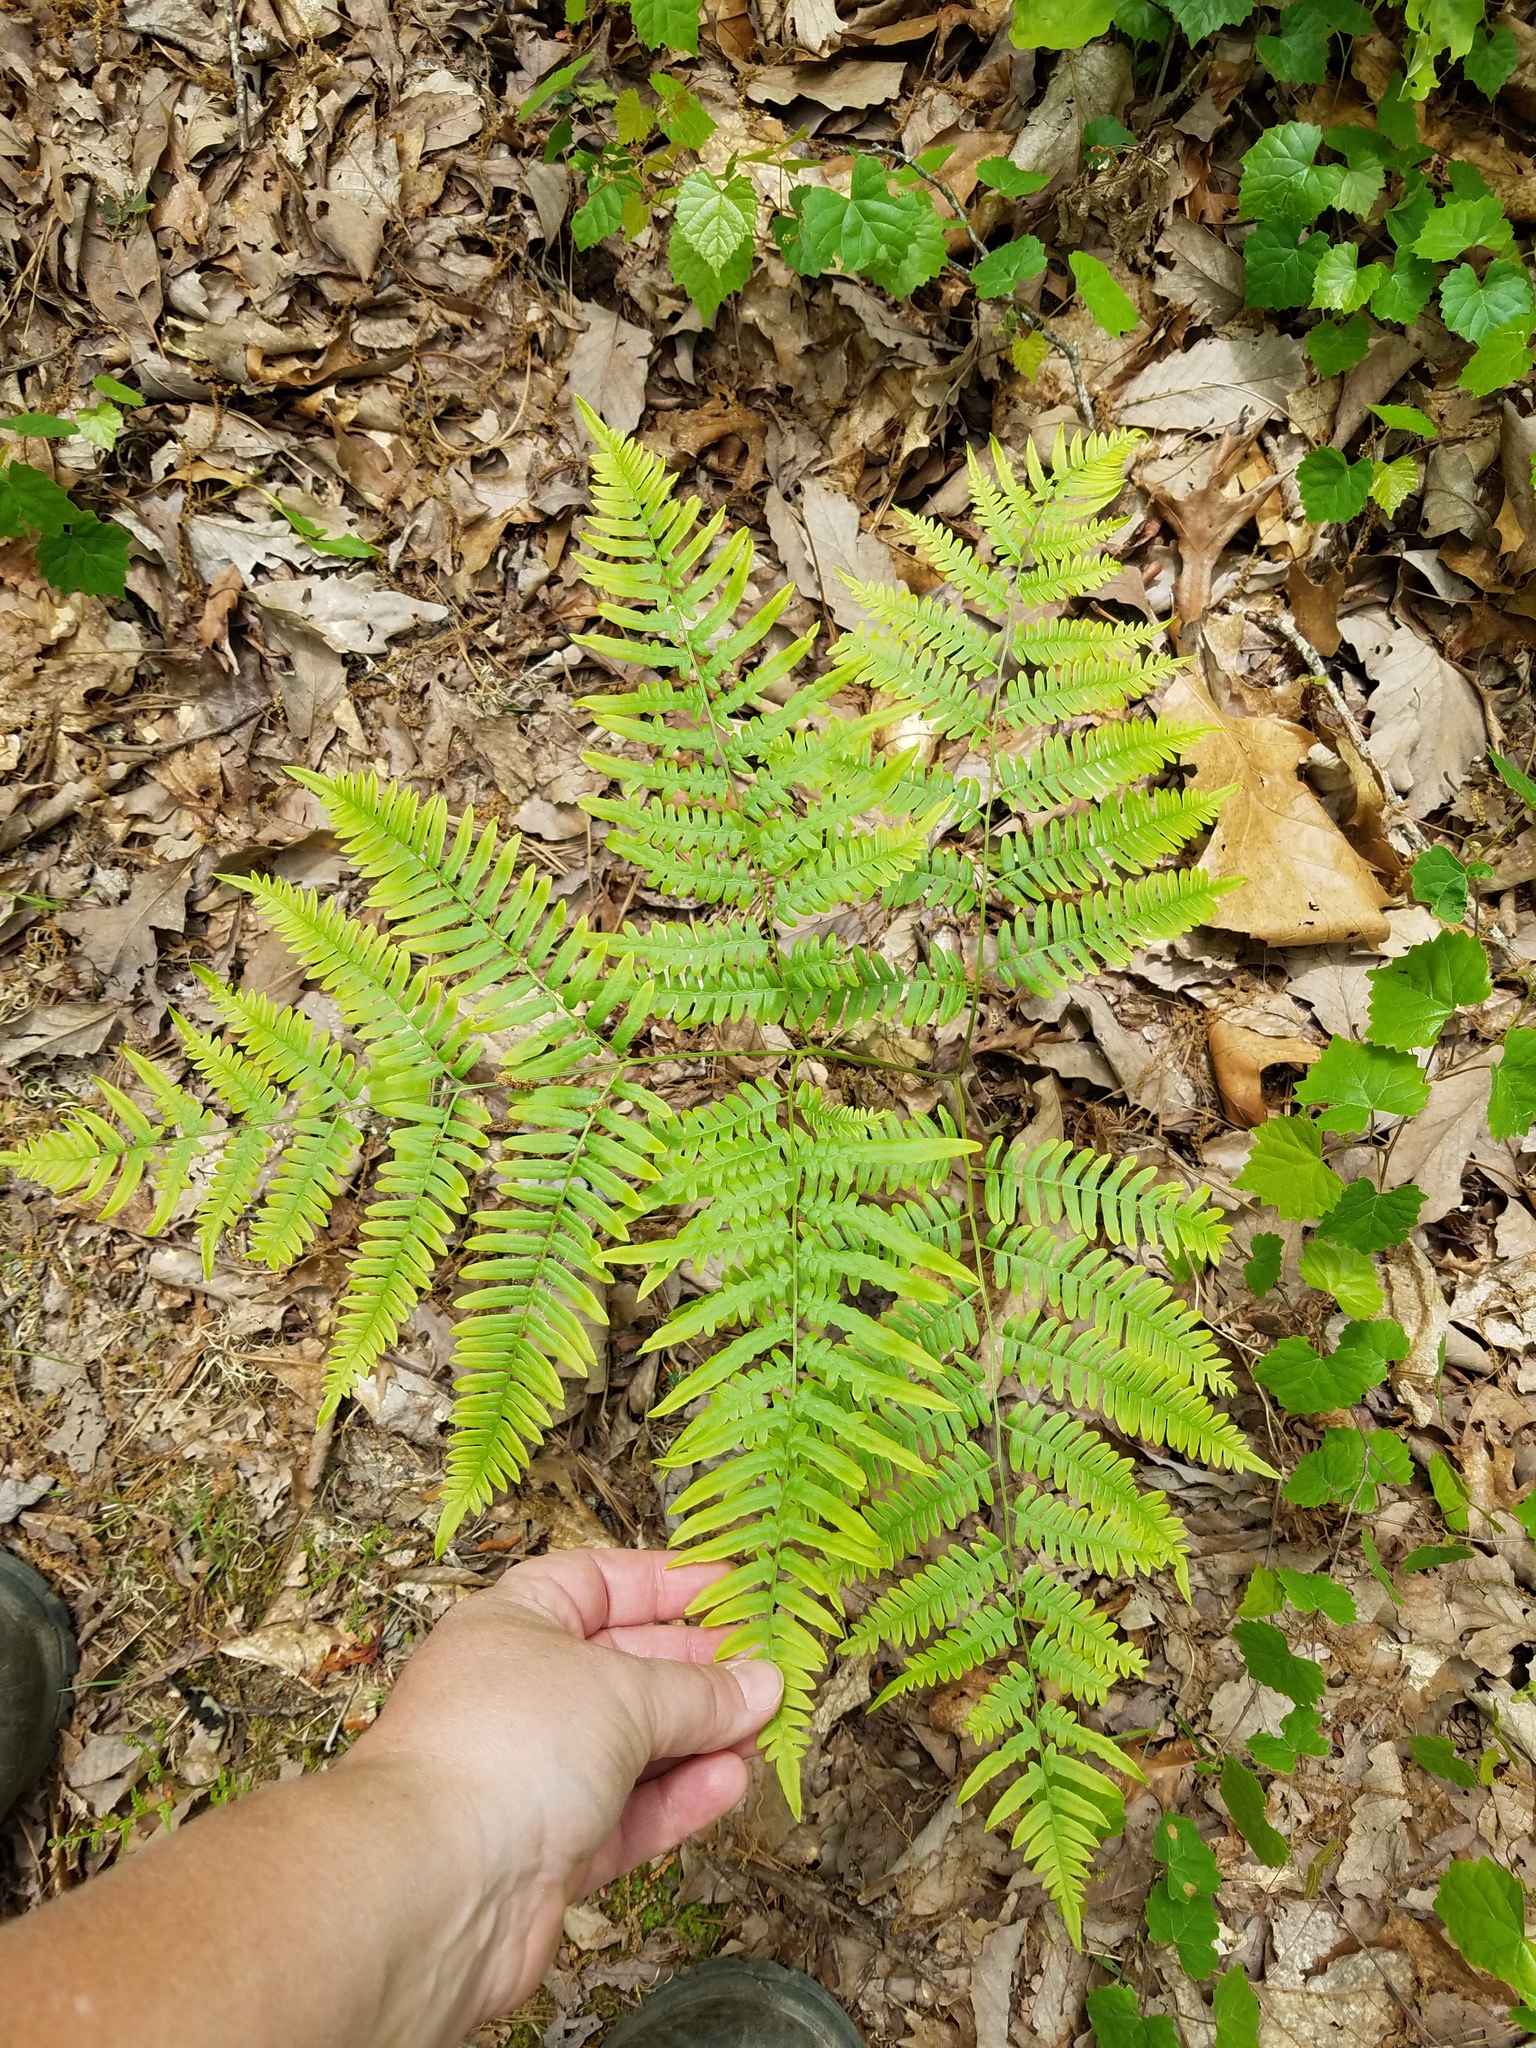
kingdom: Plantae
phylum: Tracheophyta
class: Polypodiopsida
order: Polypodiales
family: Dennstaedtiaceae
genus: Pteridium
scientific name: Pteridium aquilinum
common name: Bracken
